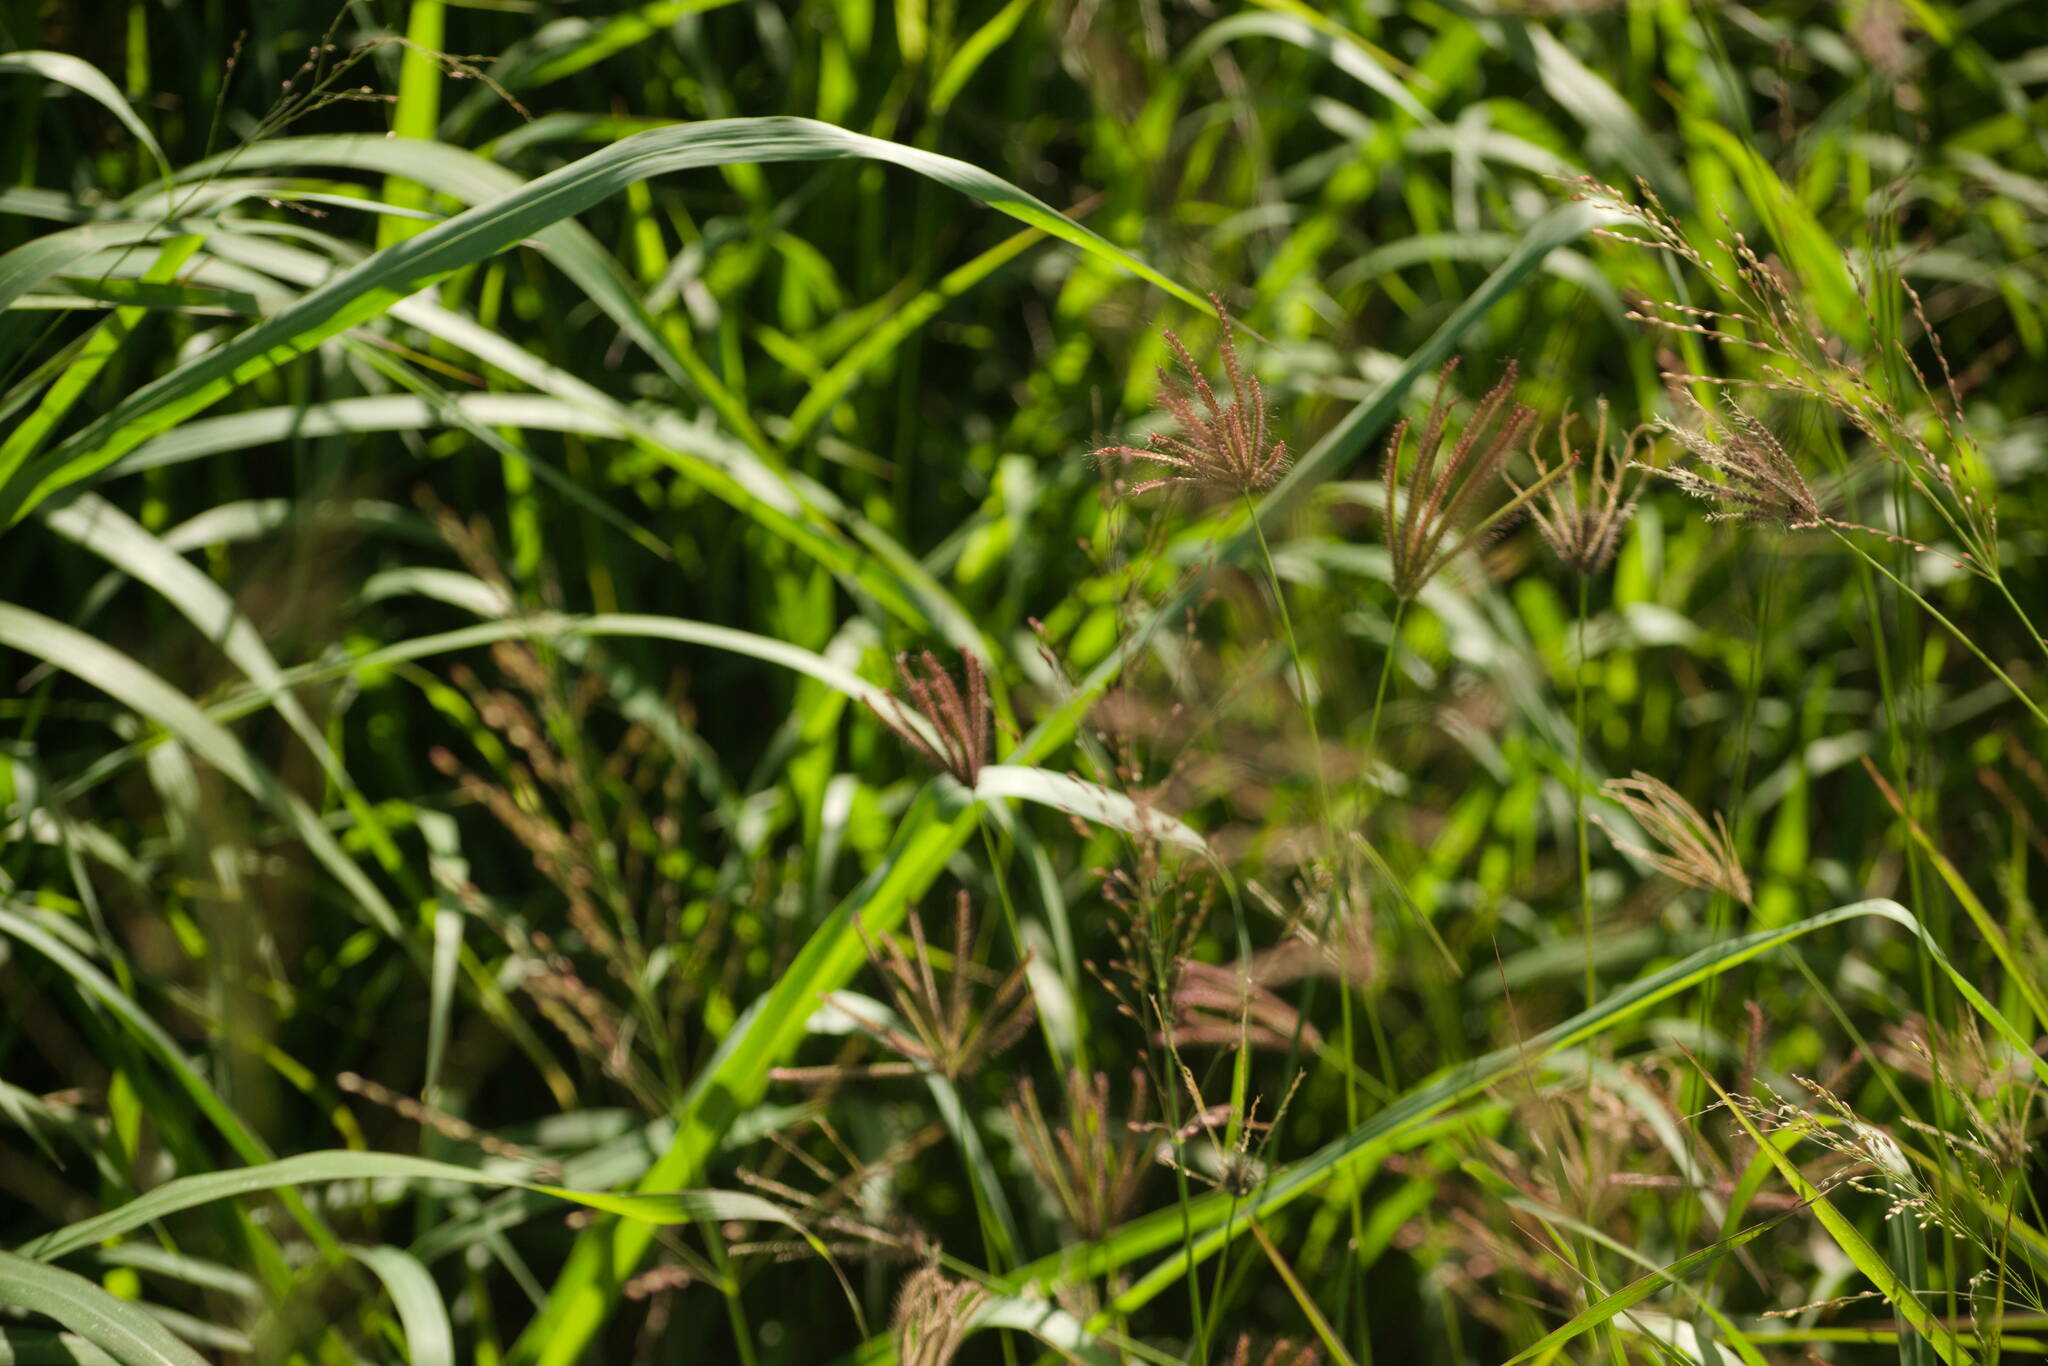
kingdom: Plantae
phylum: Tracheophyta
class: Liliopsida
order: Poales
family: Poaceae
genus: Chloris
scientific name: Chloris barbata
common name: Swollen fingergrass
